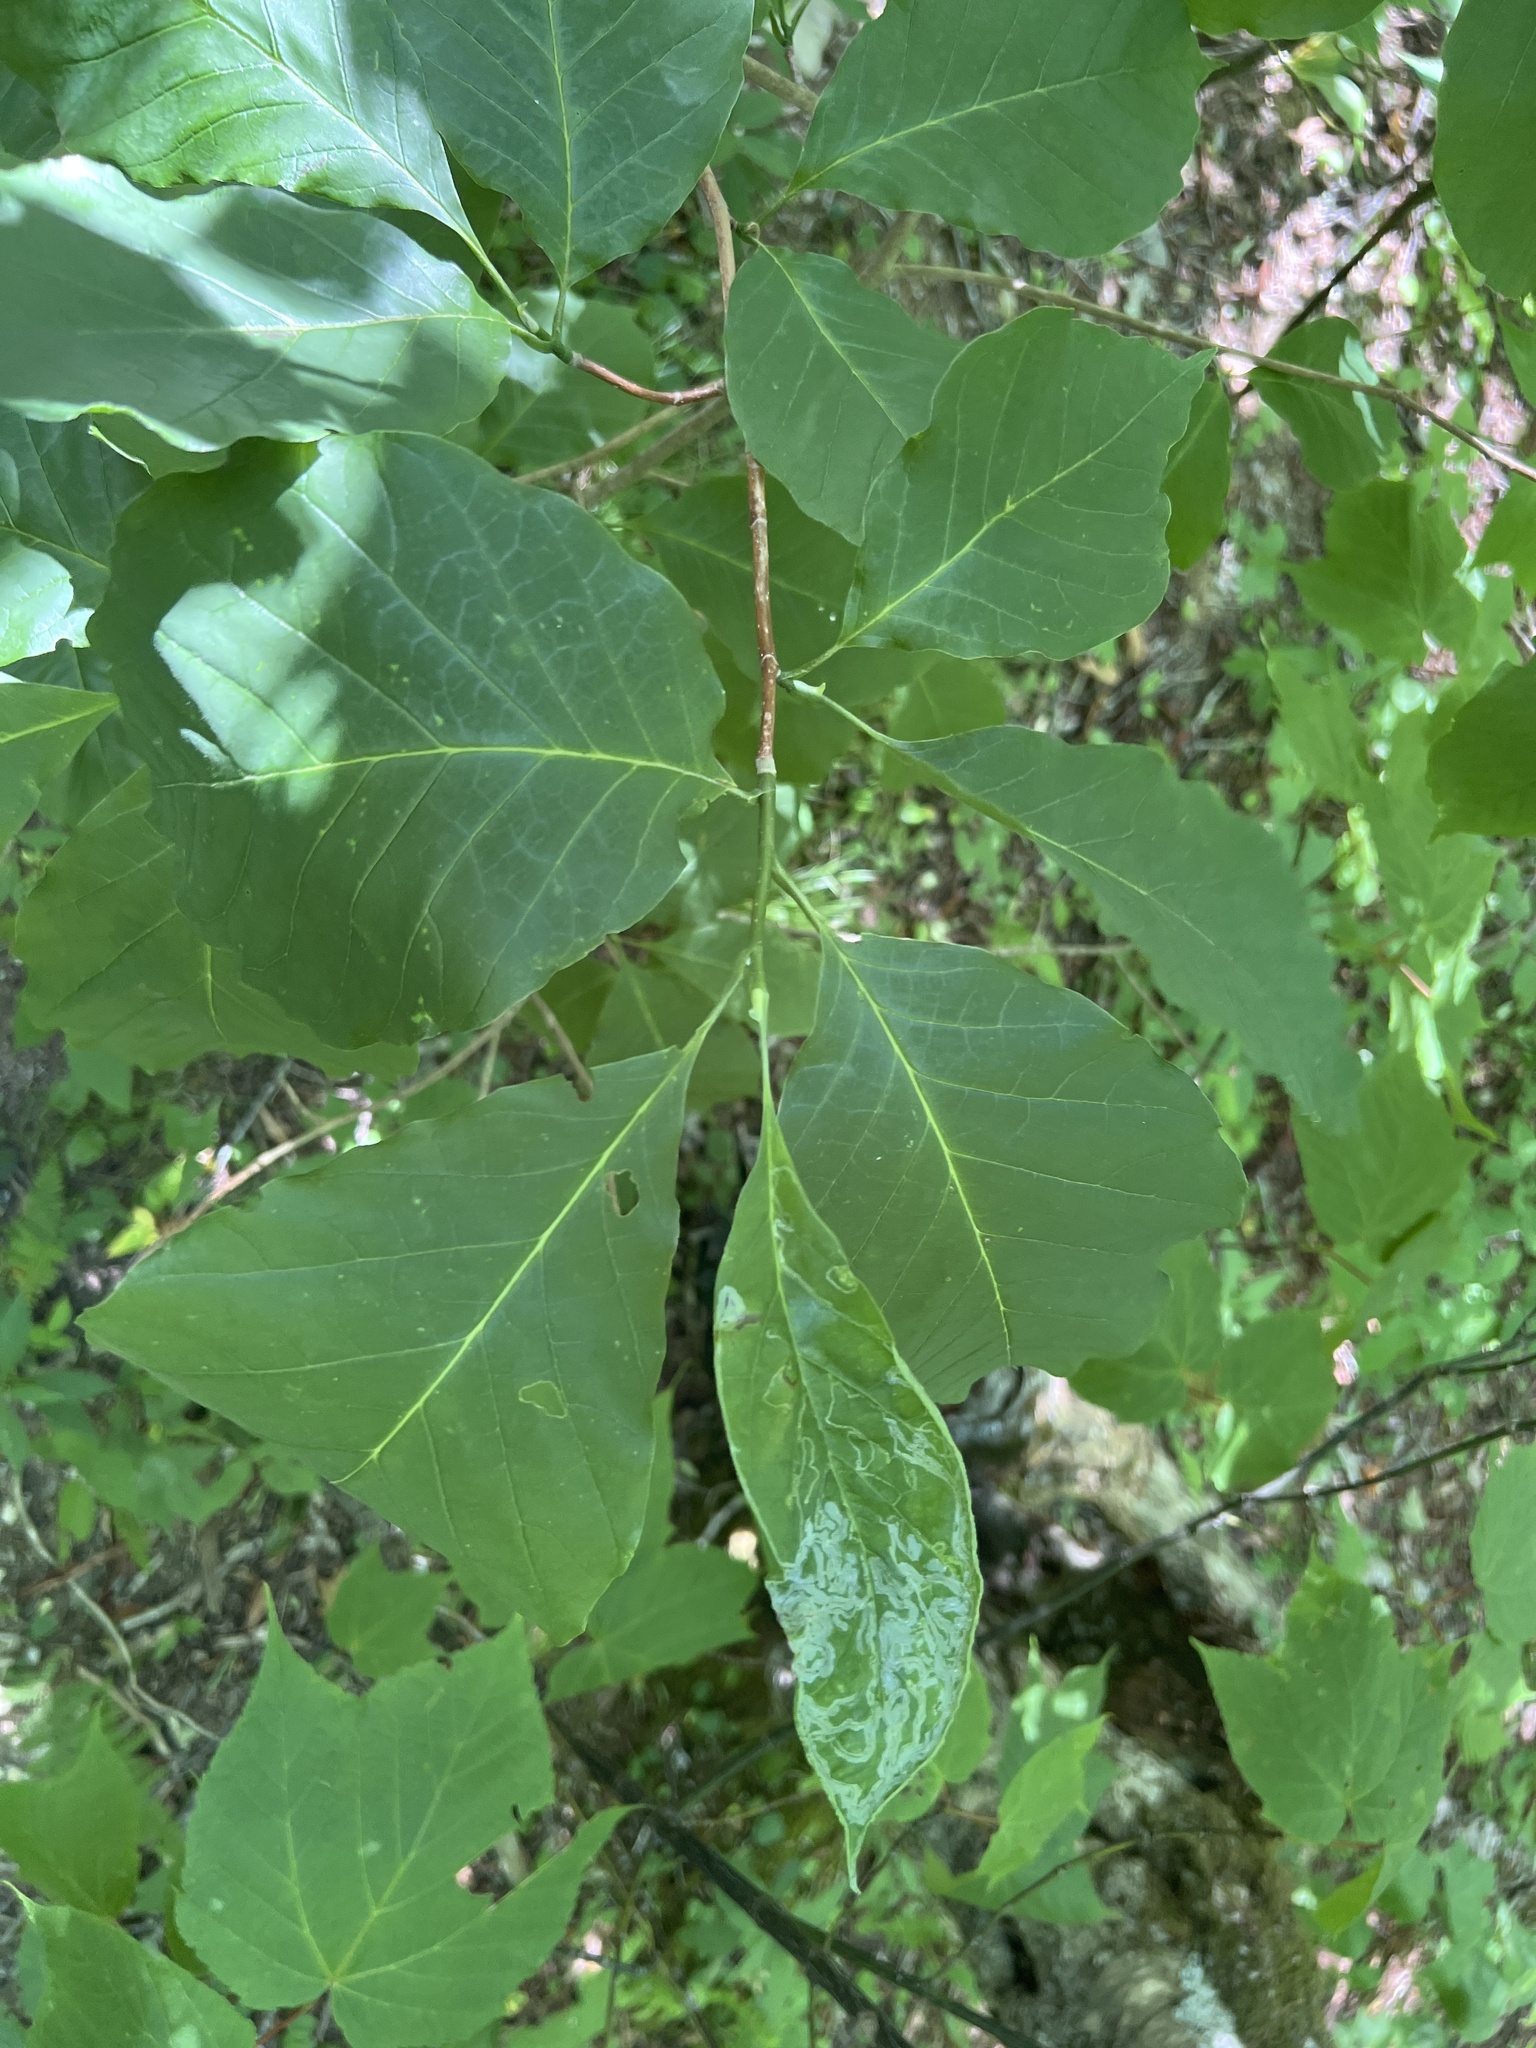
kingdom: Plantae
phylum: Tracheophyta
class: Magnoliopsida
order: Magnoliales
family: Magnoliaceae
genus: Magnolia
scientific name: Magnolia acuminata
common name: Cucumber magnolia
